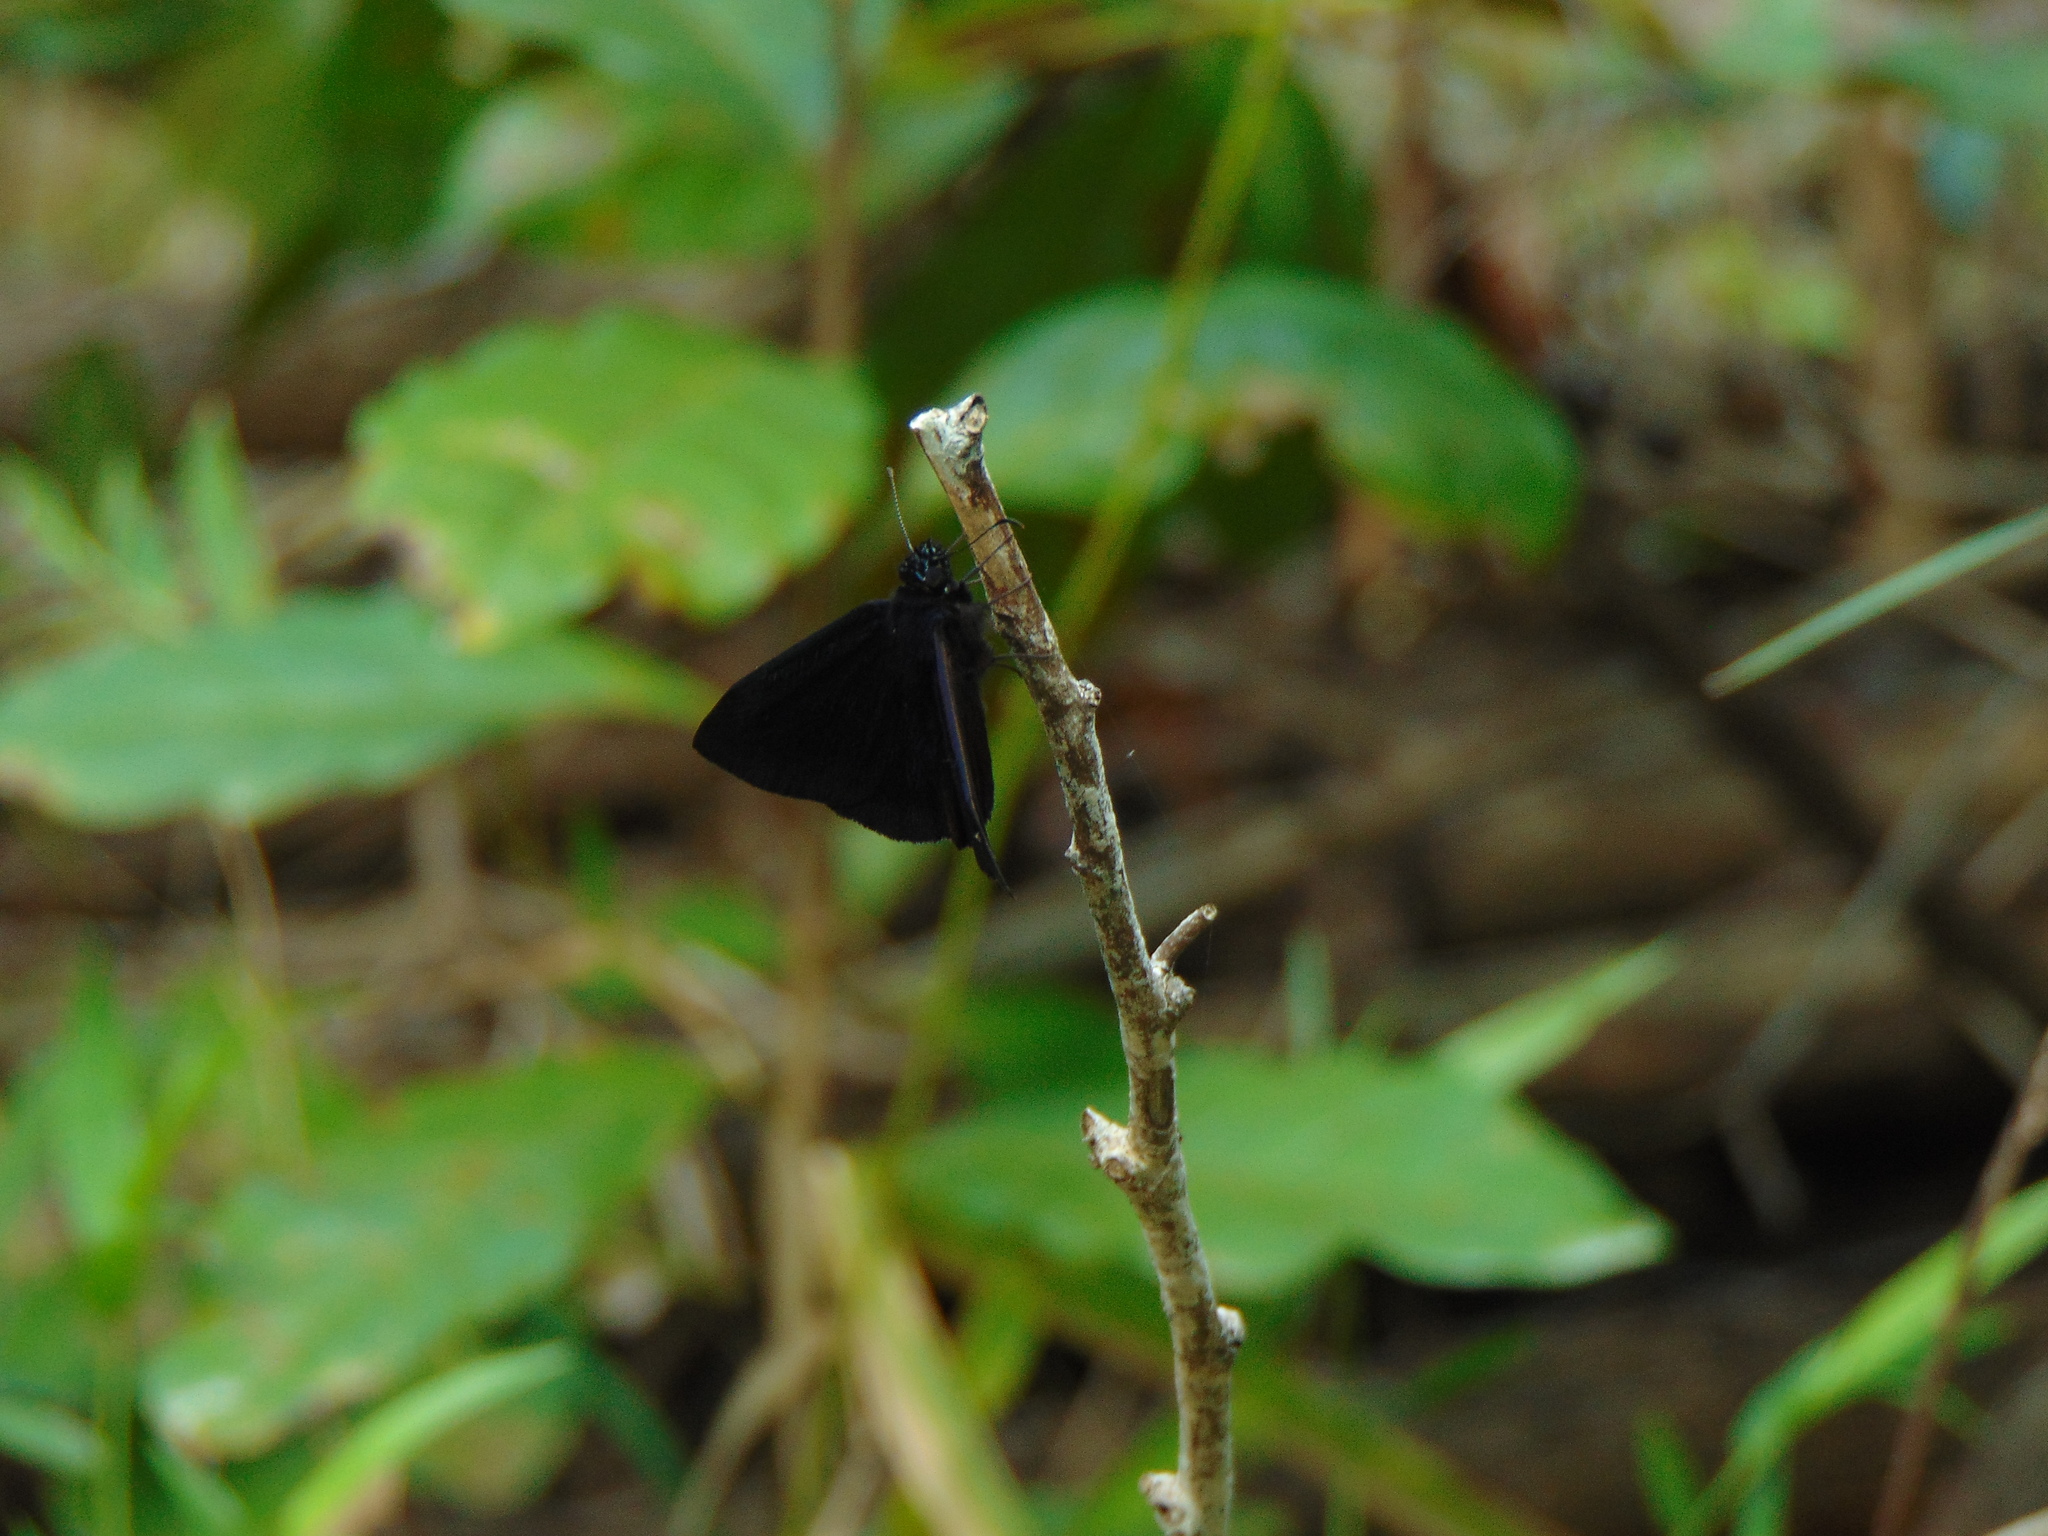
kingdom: Animalia
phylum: Arthropoda
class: Insecta
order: Lepidoptera
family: Hesperiidae
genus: Ephyriades
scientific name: Ephyriades arcas
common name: Caribbean duskywing
